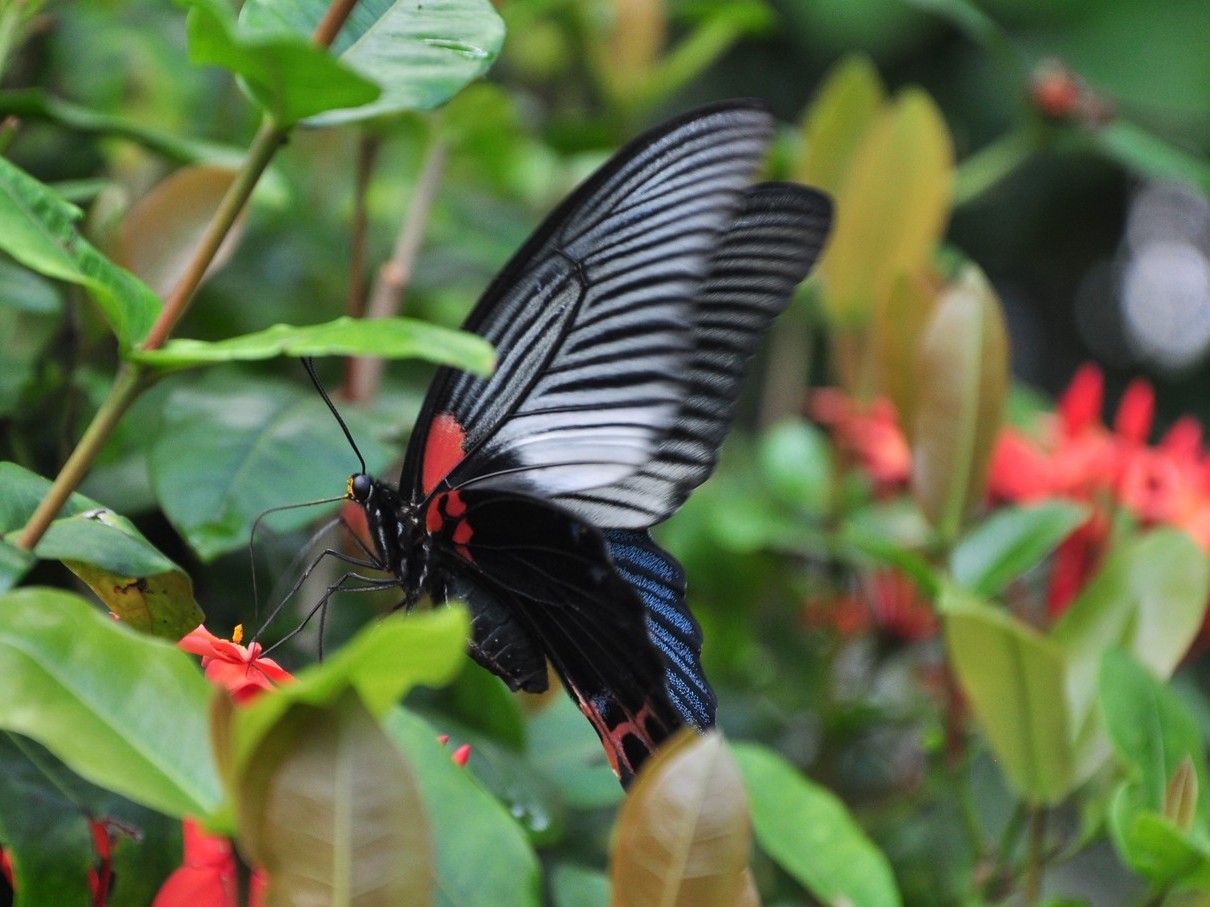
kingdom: Animalia
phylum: Arthropoda
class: Insecta
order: Lepidoptera
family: Papilionidae
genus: Papilio
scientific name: Papilio memnon
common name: Great mormon
